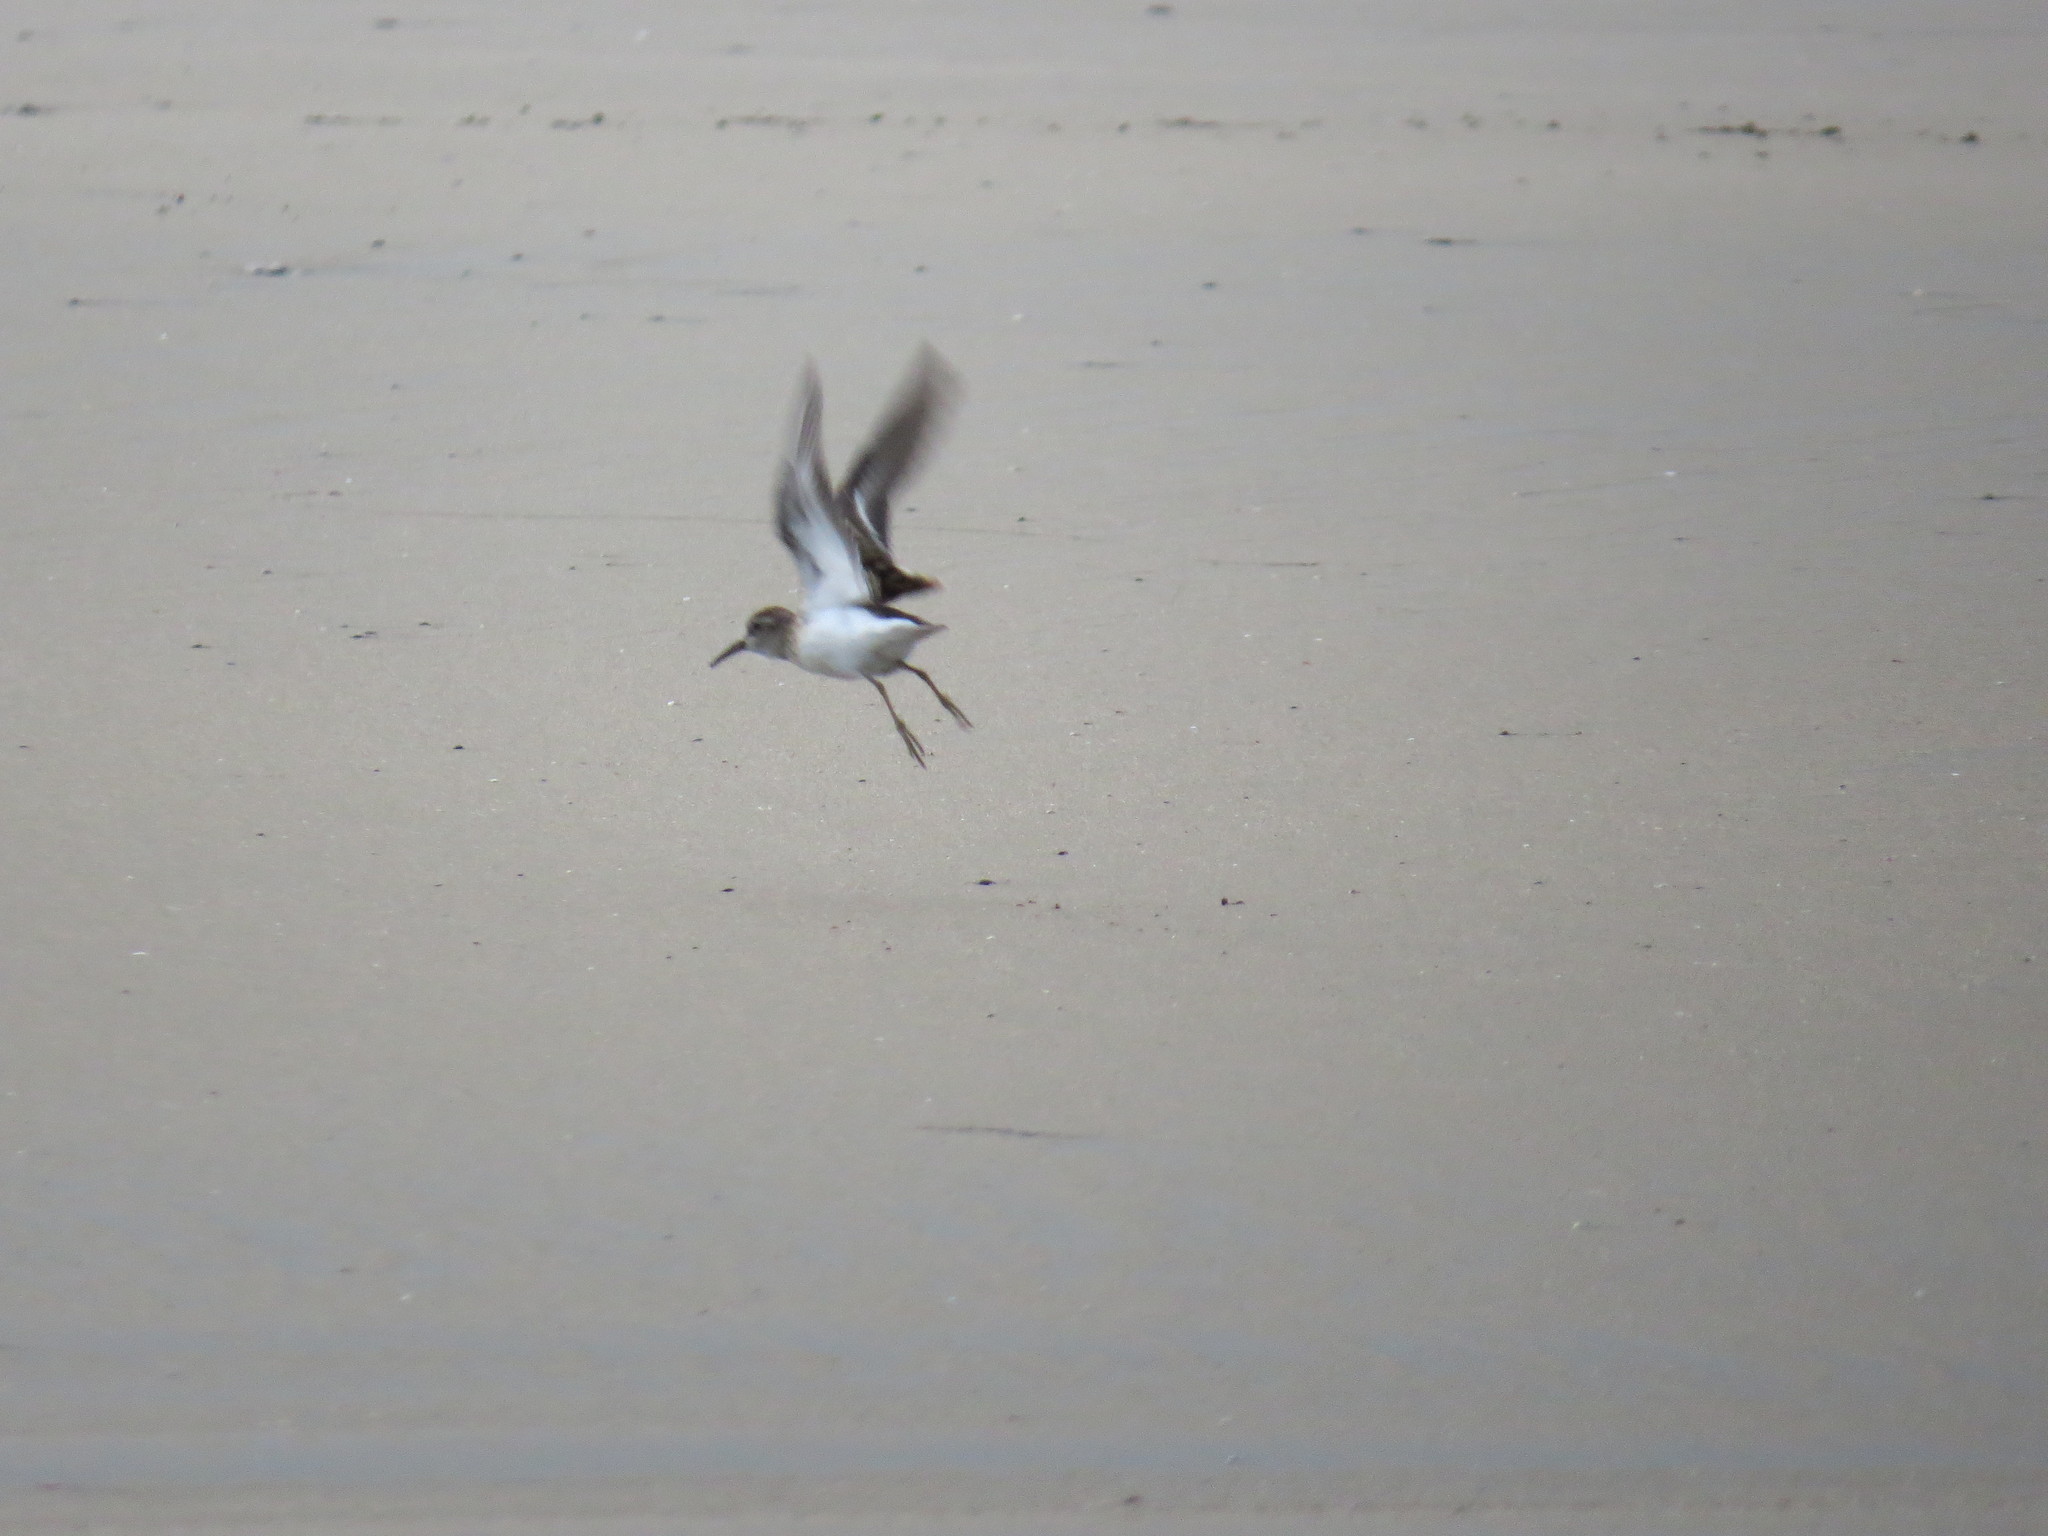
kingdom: Animalia
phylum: Chordata
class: Aves
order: Charadriiformes
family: Scolopacidae
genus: Calidris
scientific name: Calidris minutilla
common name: Least sandpiper
